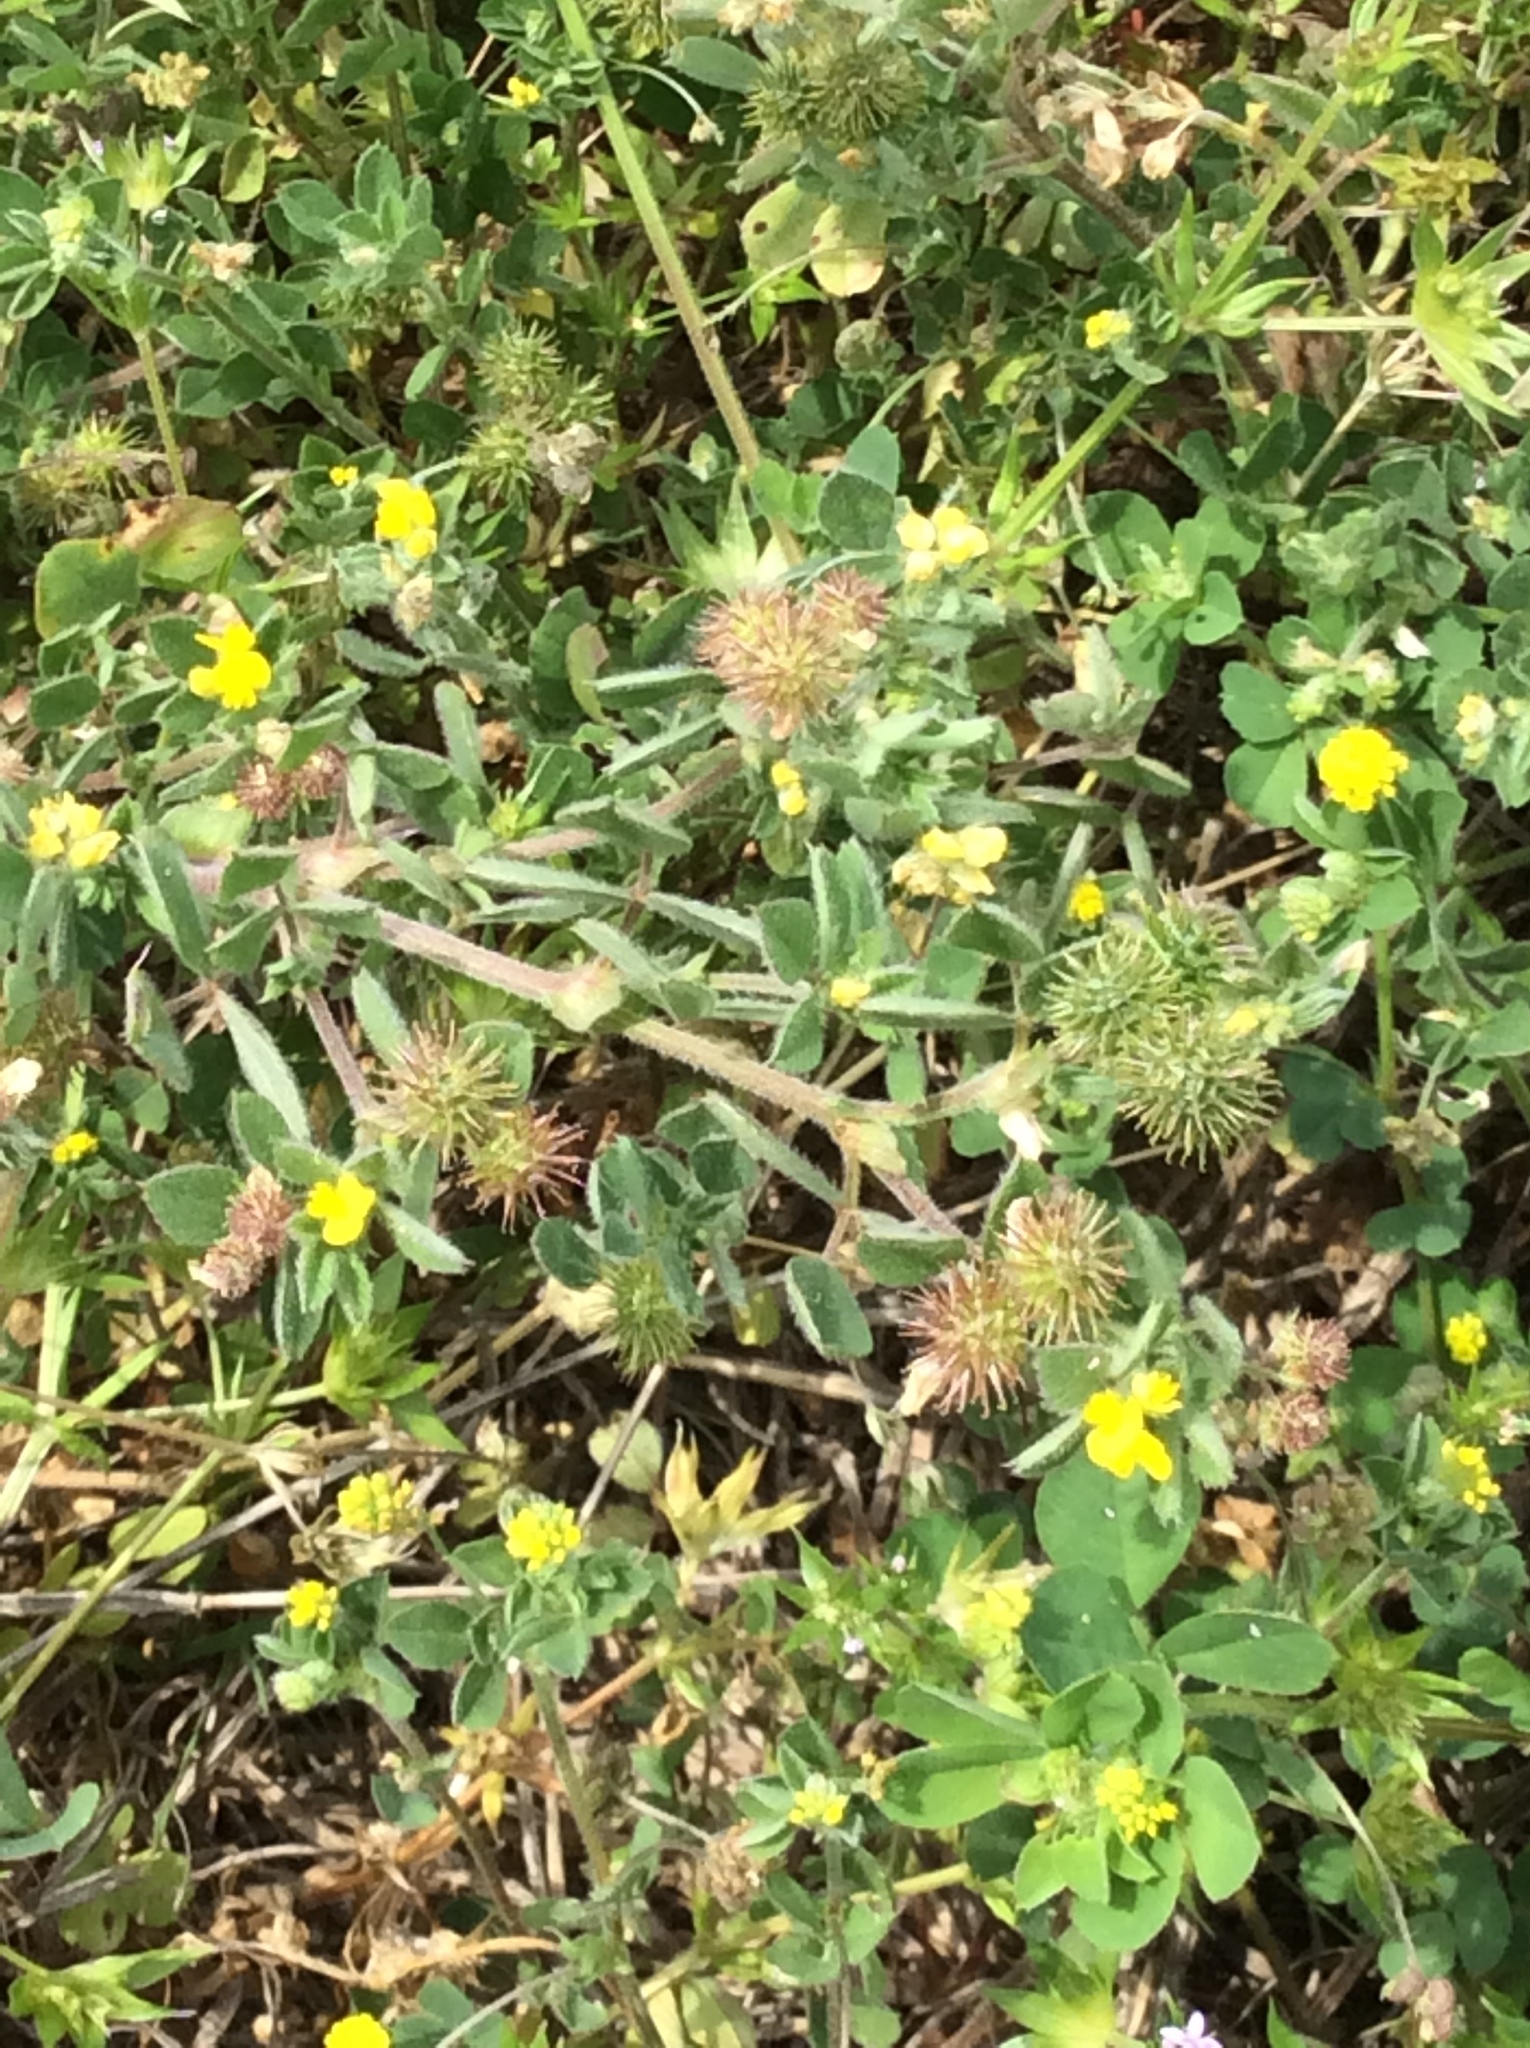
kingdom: Plantae
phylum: Tracheophyta
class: Magnoliopsida
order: Fabales
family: Fabaceae
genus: Medicago
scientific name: Medicago minima
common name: Little bur-clover
